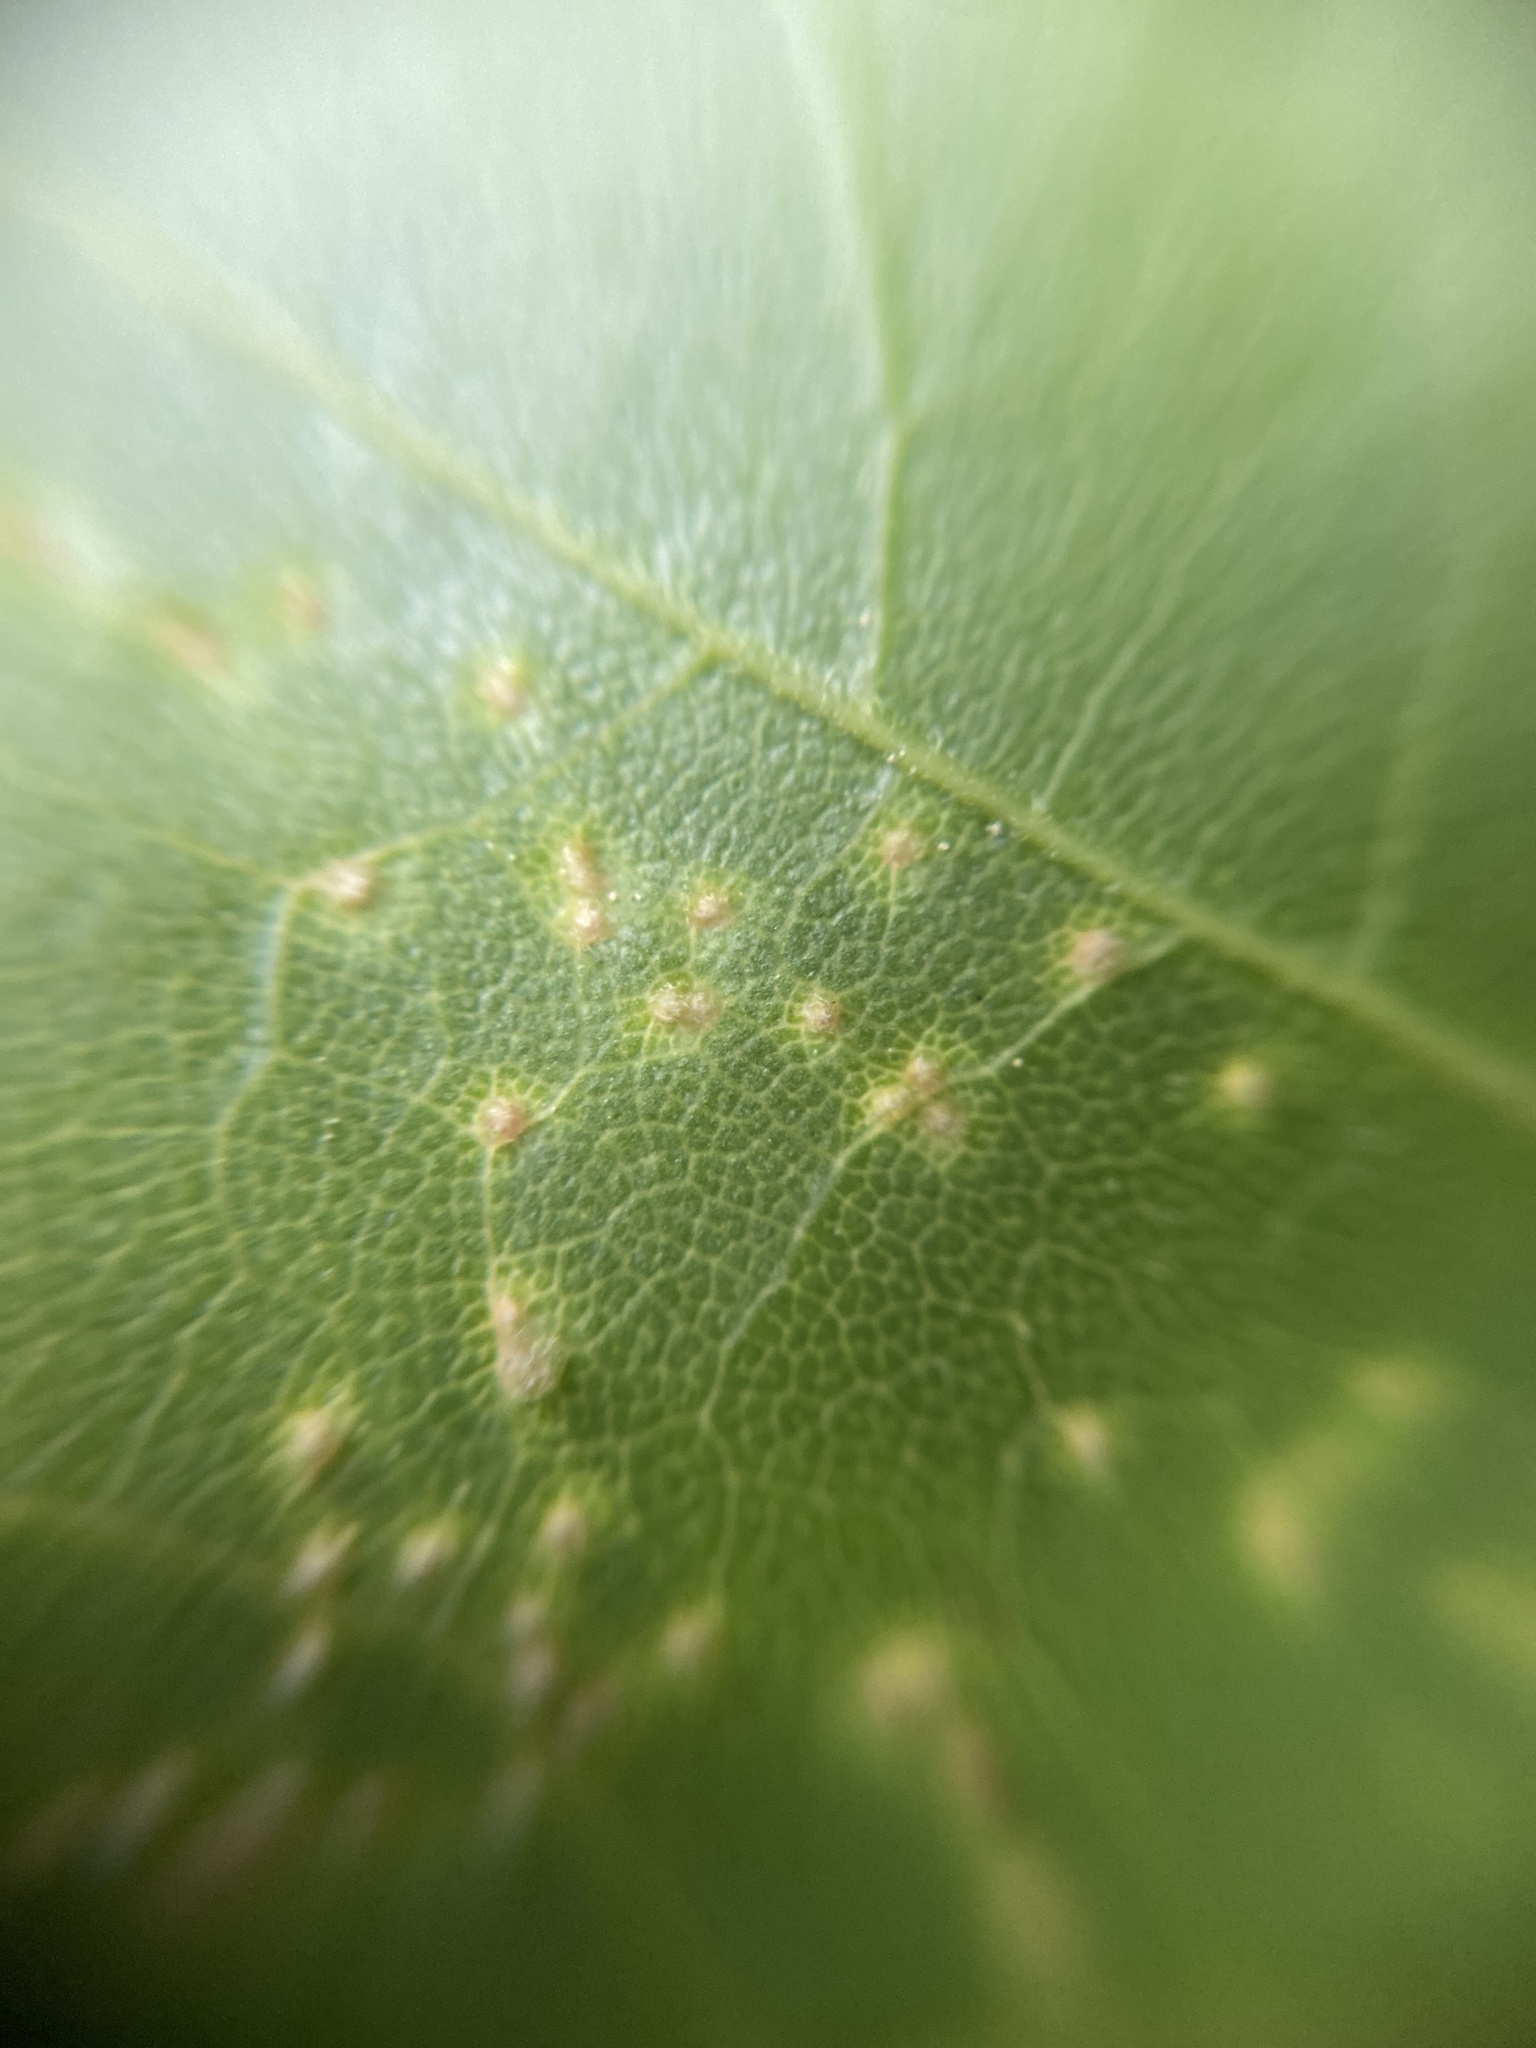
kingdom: Animalia
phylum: Arthropoda
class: Arachnida
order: Trombidiformes
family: Eriophyidae
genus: Aceria
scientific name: Aceria myriadeum
